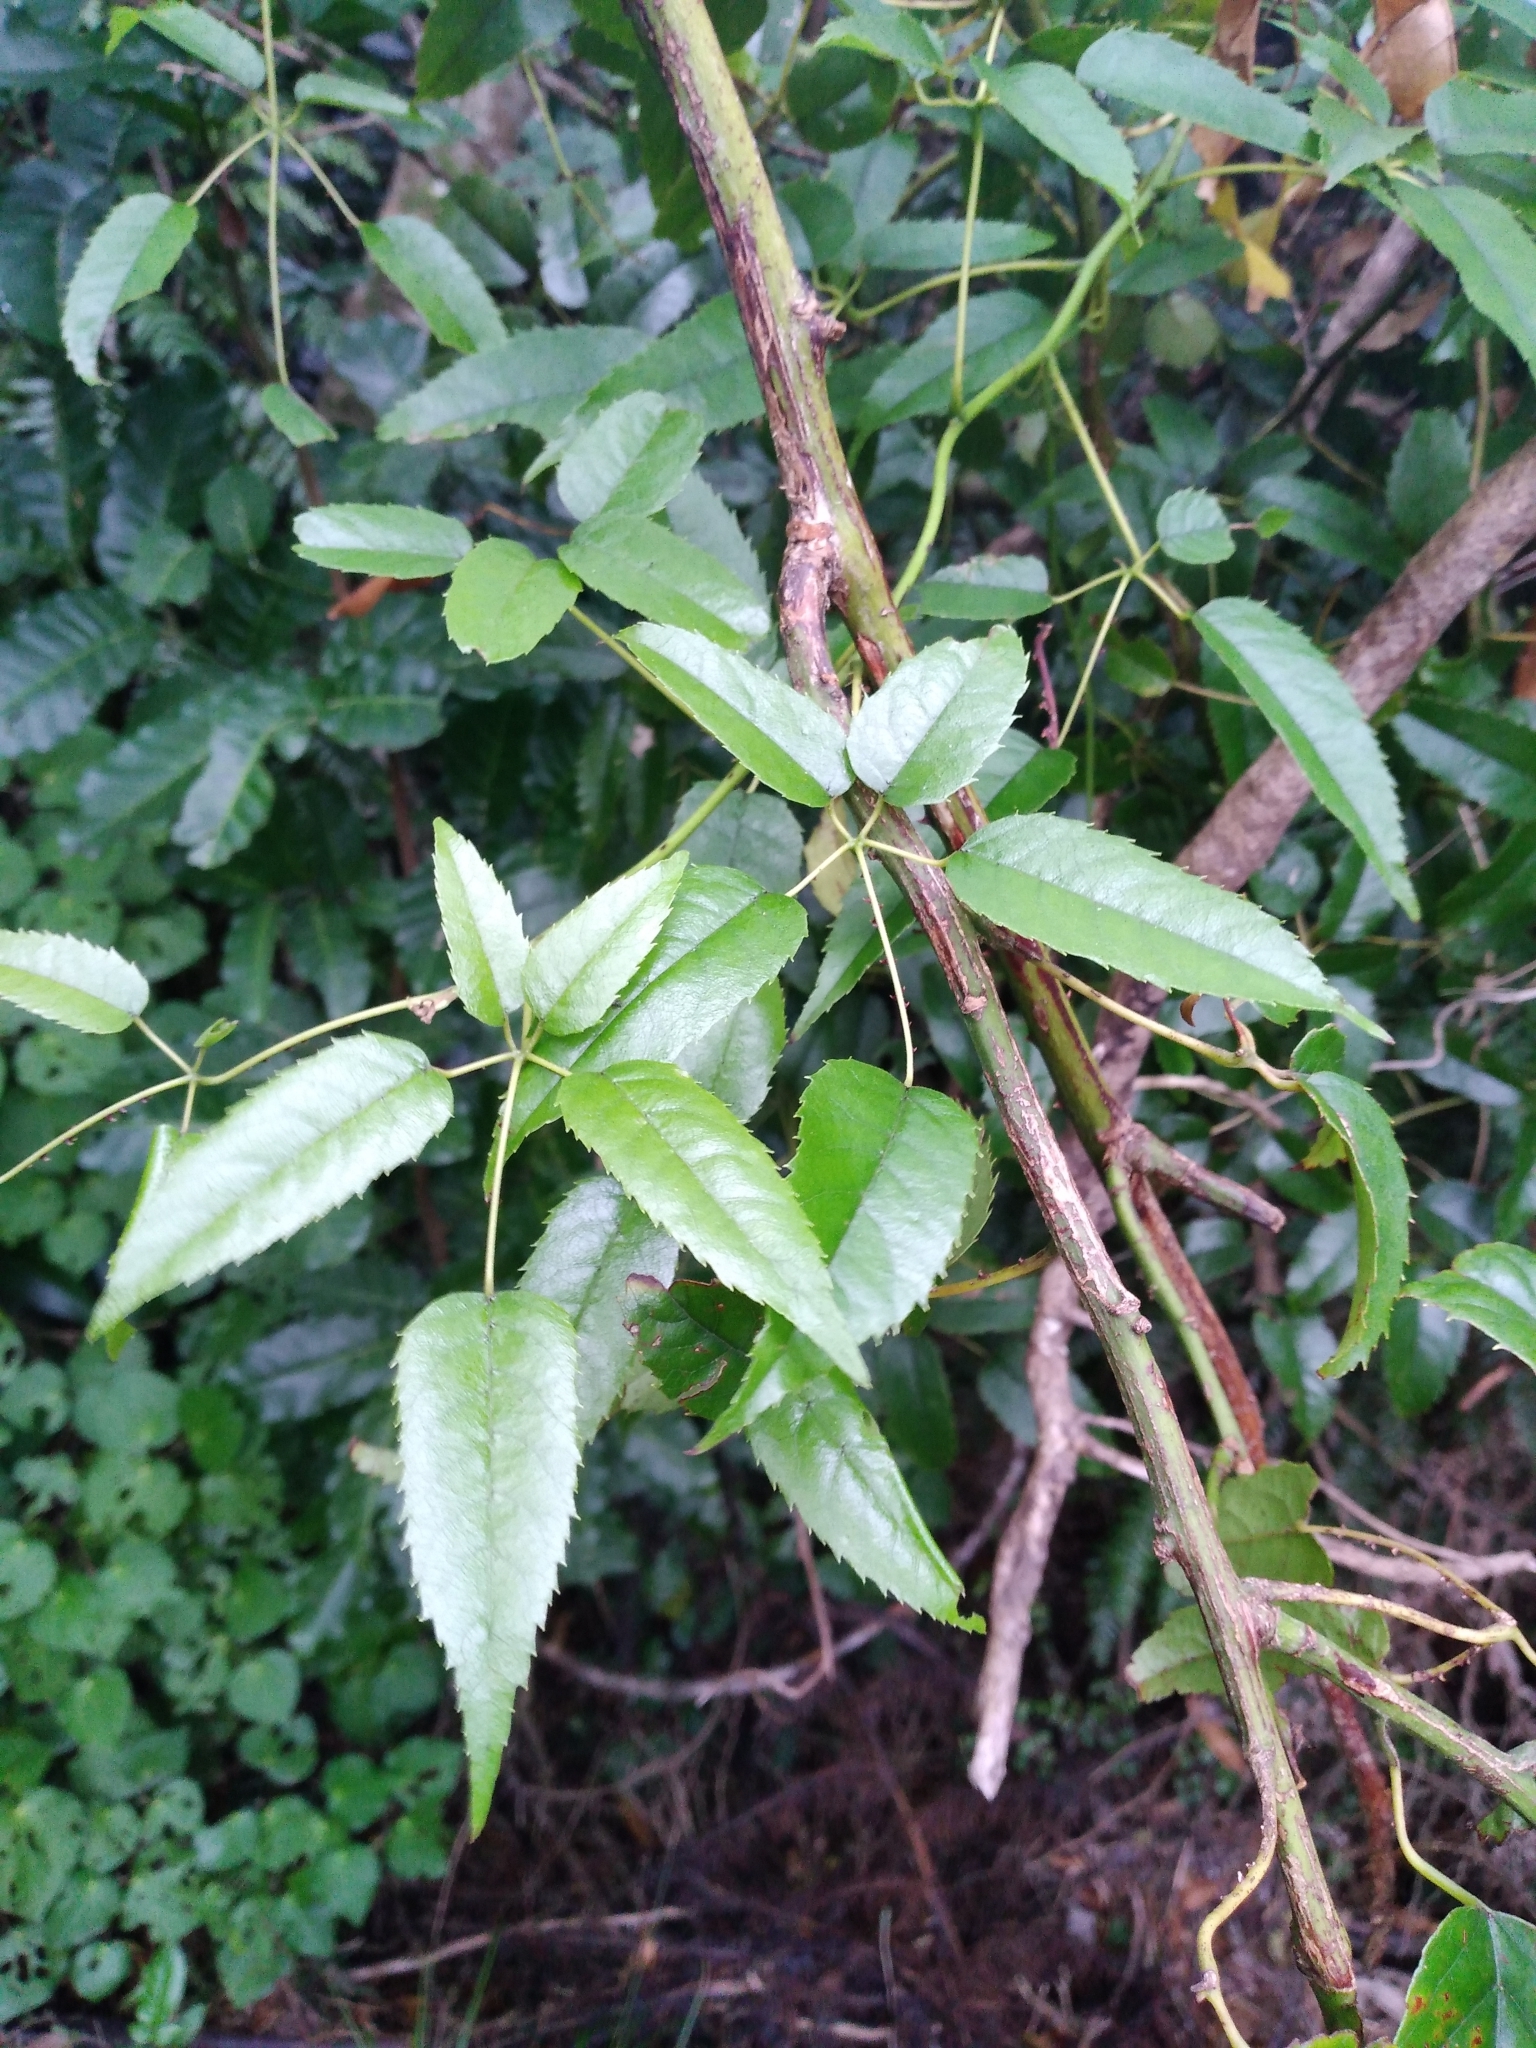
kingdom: Plantae
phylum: Tracheophyta
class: Magnoliopsida
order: Rosales
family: Rosaceae
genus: Rubus
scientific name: Rubus cissoides
